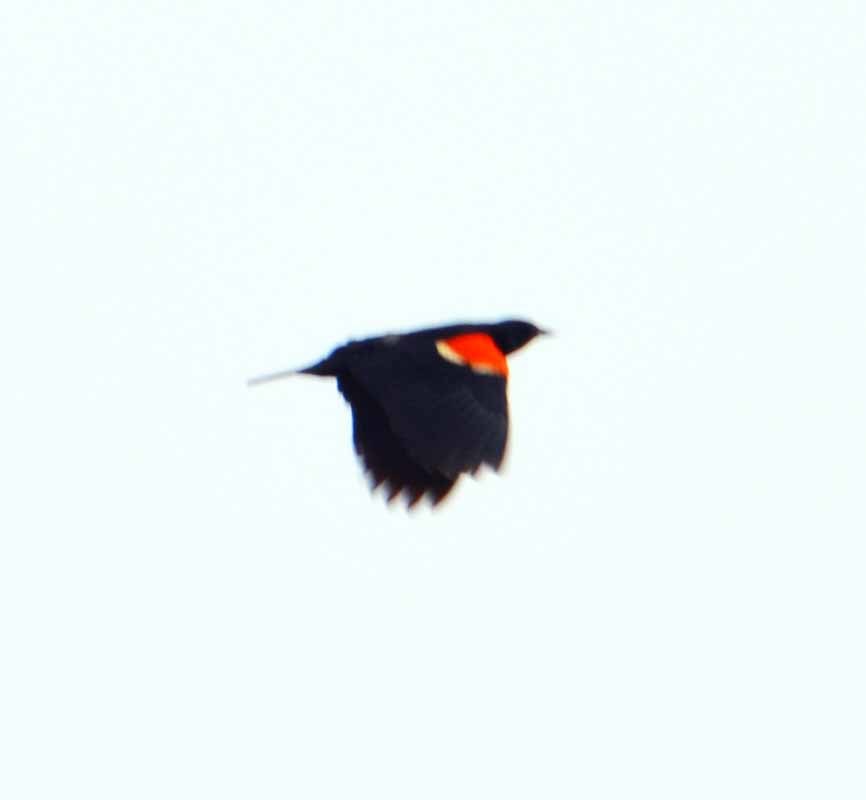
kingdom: Animalia
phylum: Chordata
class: Aves
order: Passeriformes
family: Icteridae
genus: Agelaius
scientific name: Agelaius phoeniceus
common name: Red-winged blackbird
